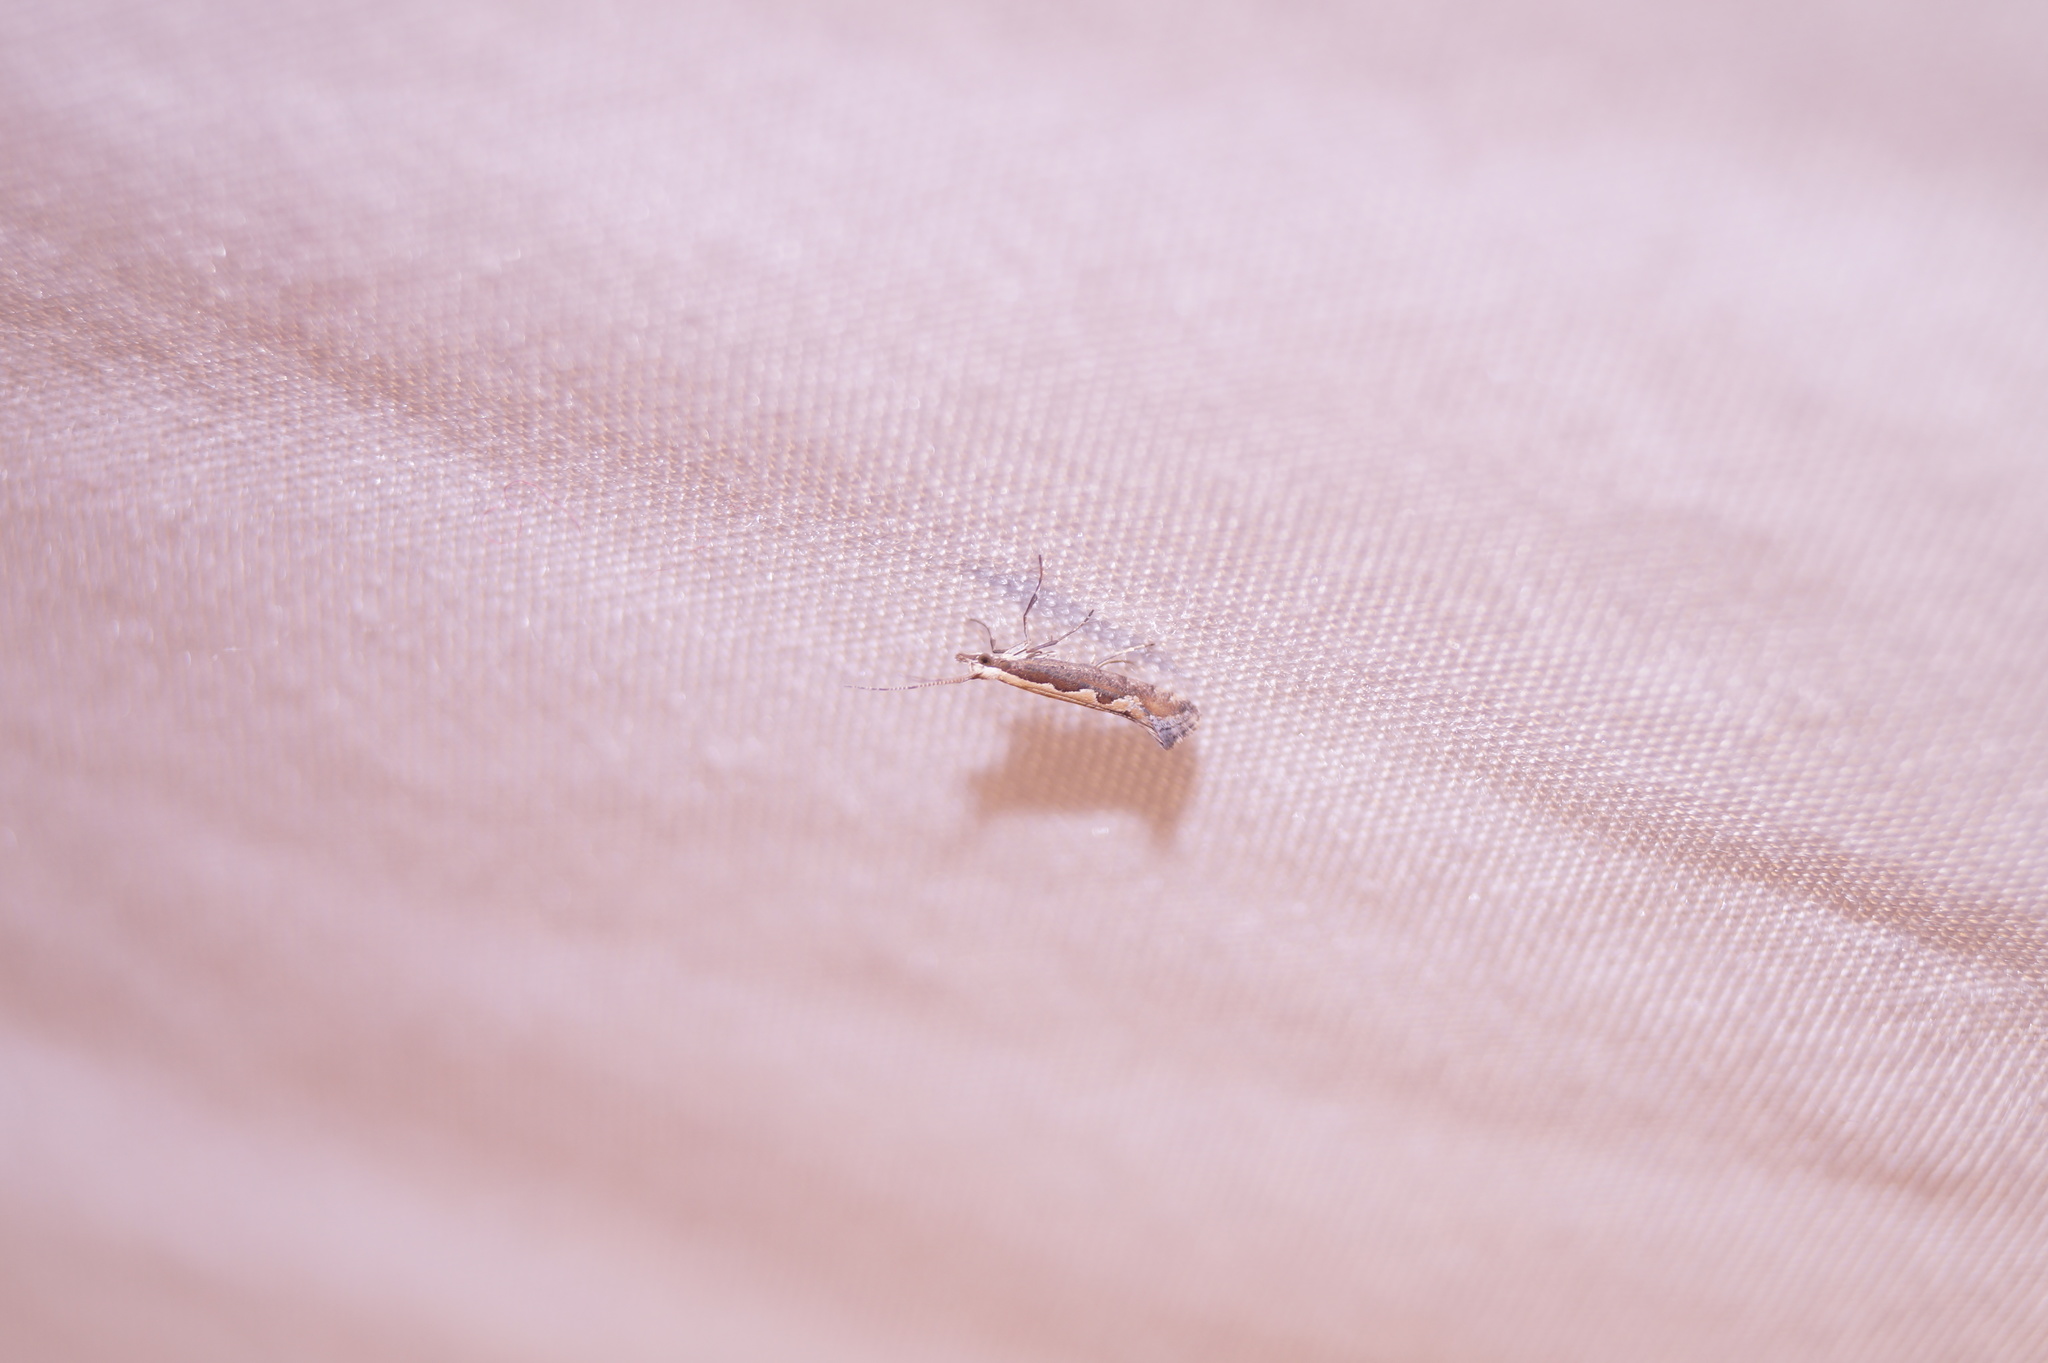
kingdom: Animalia
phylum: Arthropoda
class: Insecta
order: Lepidoptera
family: Plutellidae
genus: Plutella
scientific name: Plutella xylostella
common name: Diamond-back moth
